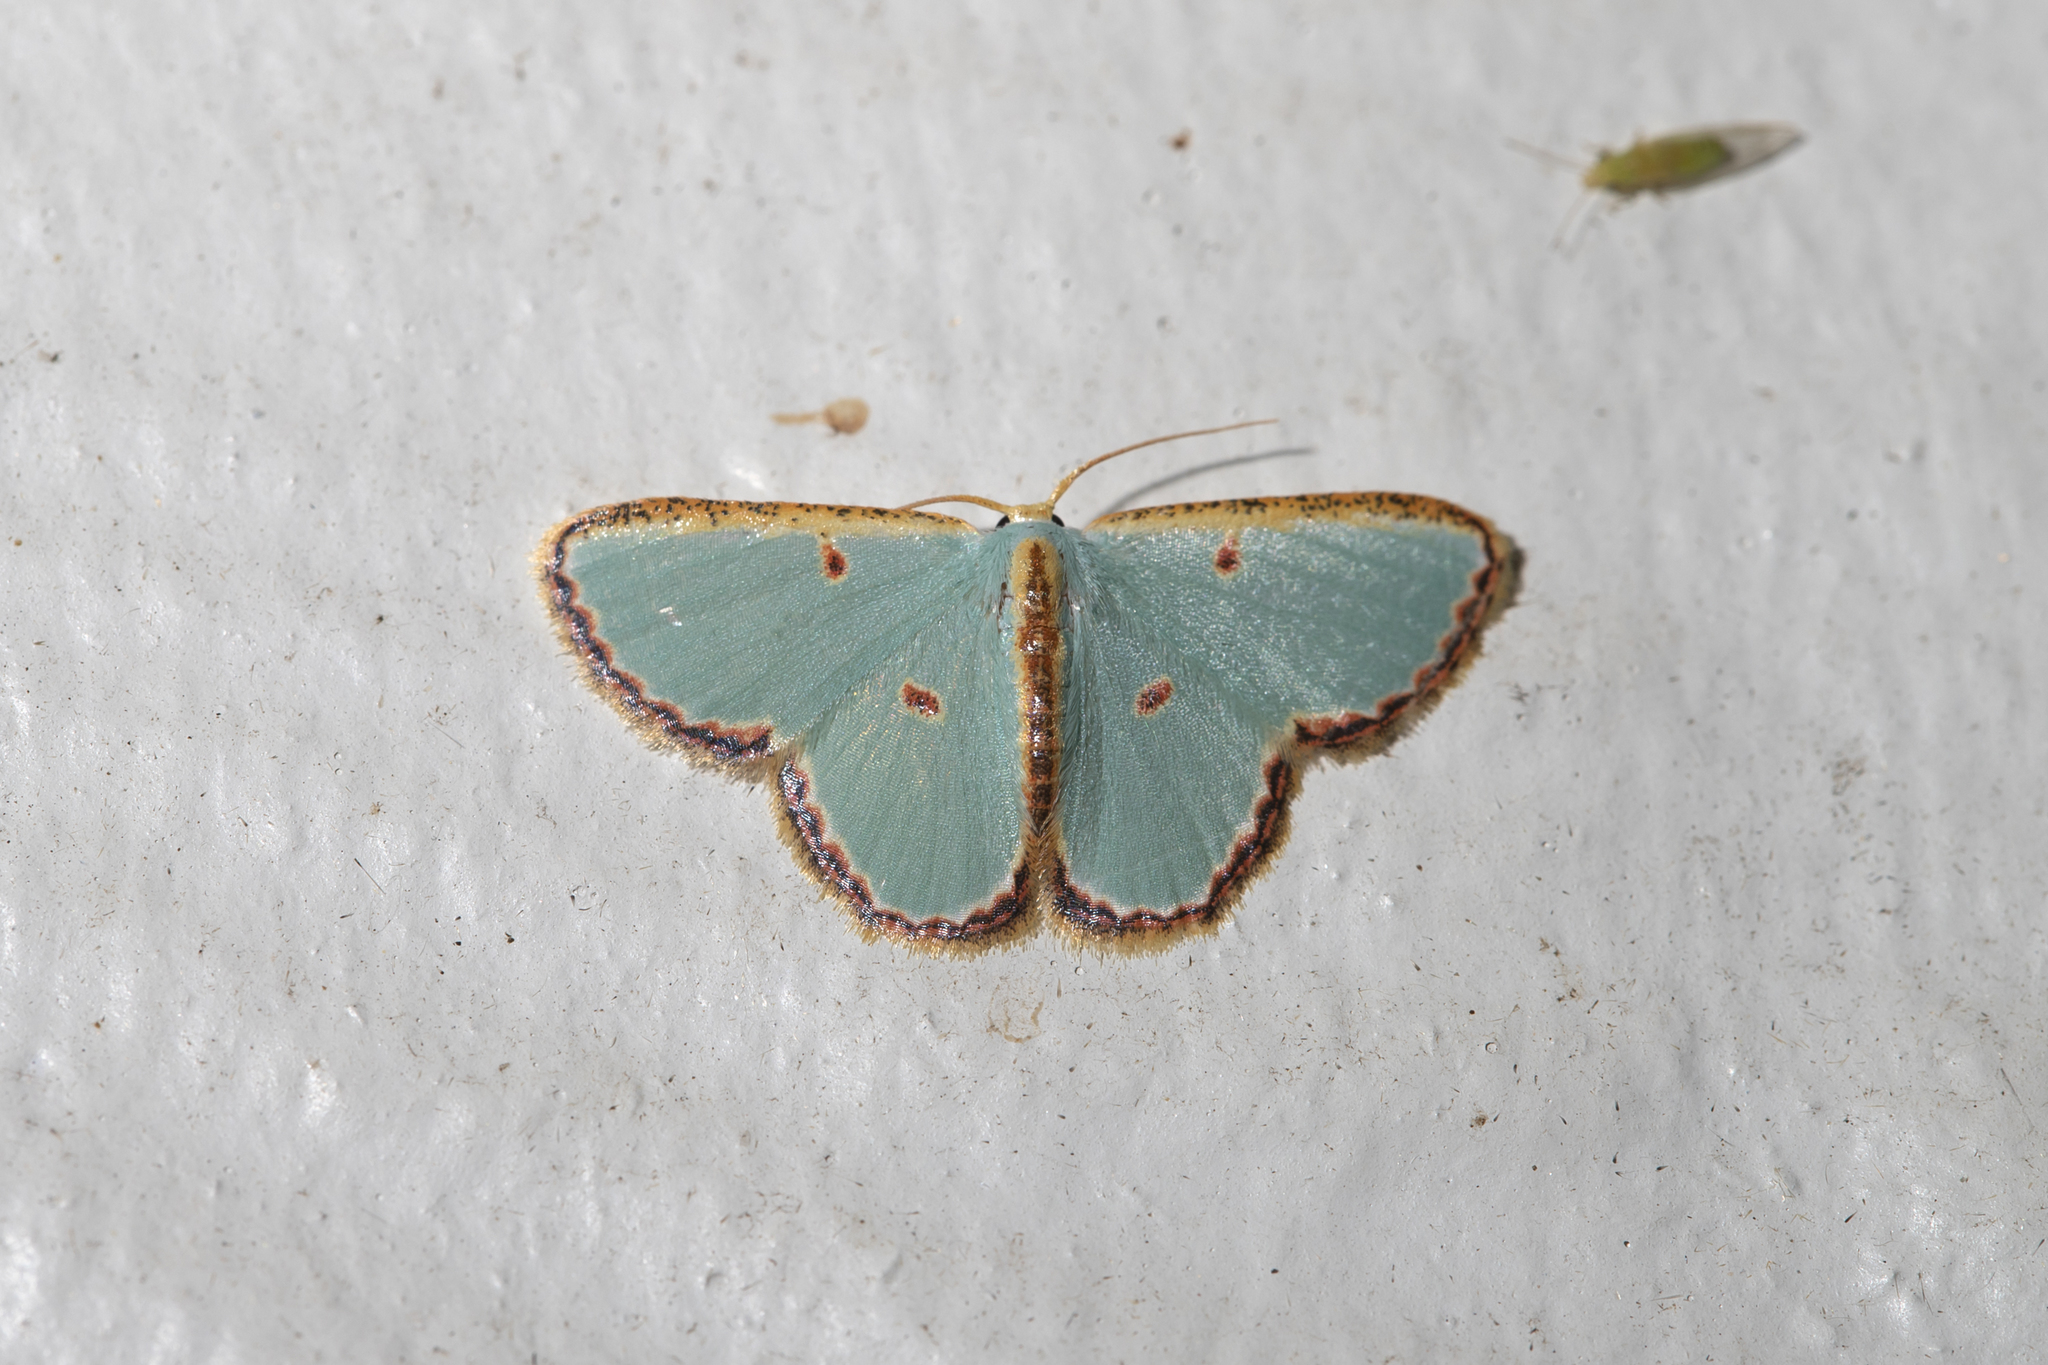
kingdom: Animalia
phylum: Arthropoda
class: Insecta
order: Lepidoptera
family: Geometridae
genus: Comostola
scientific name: Comostola pyrrhogona
